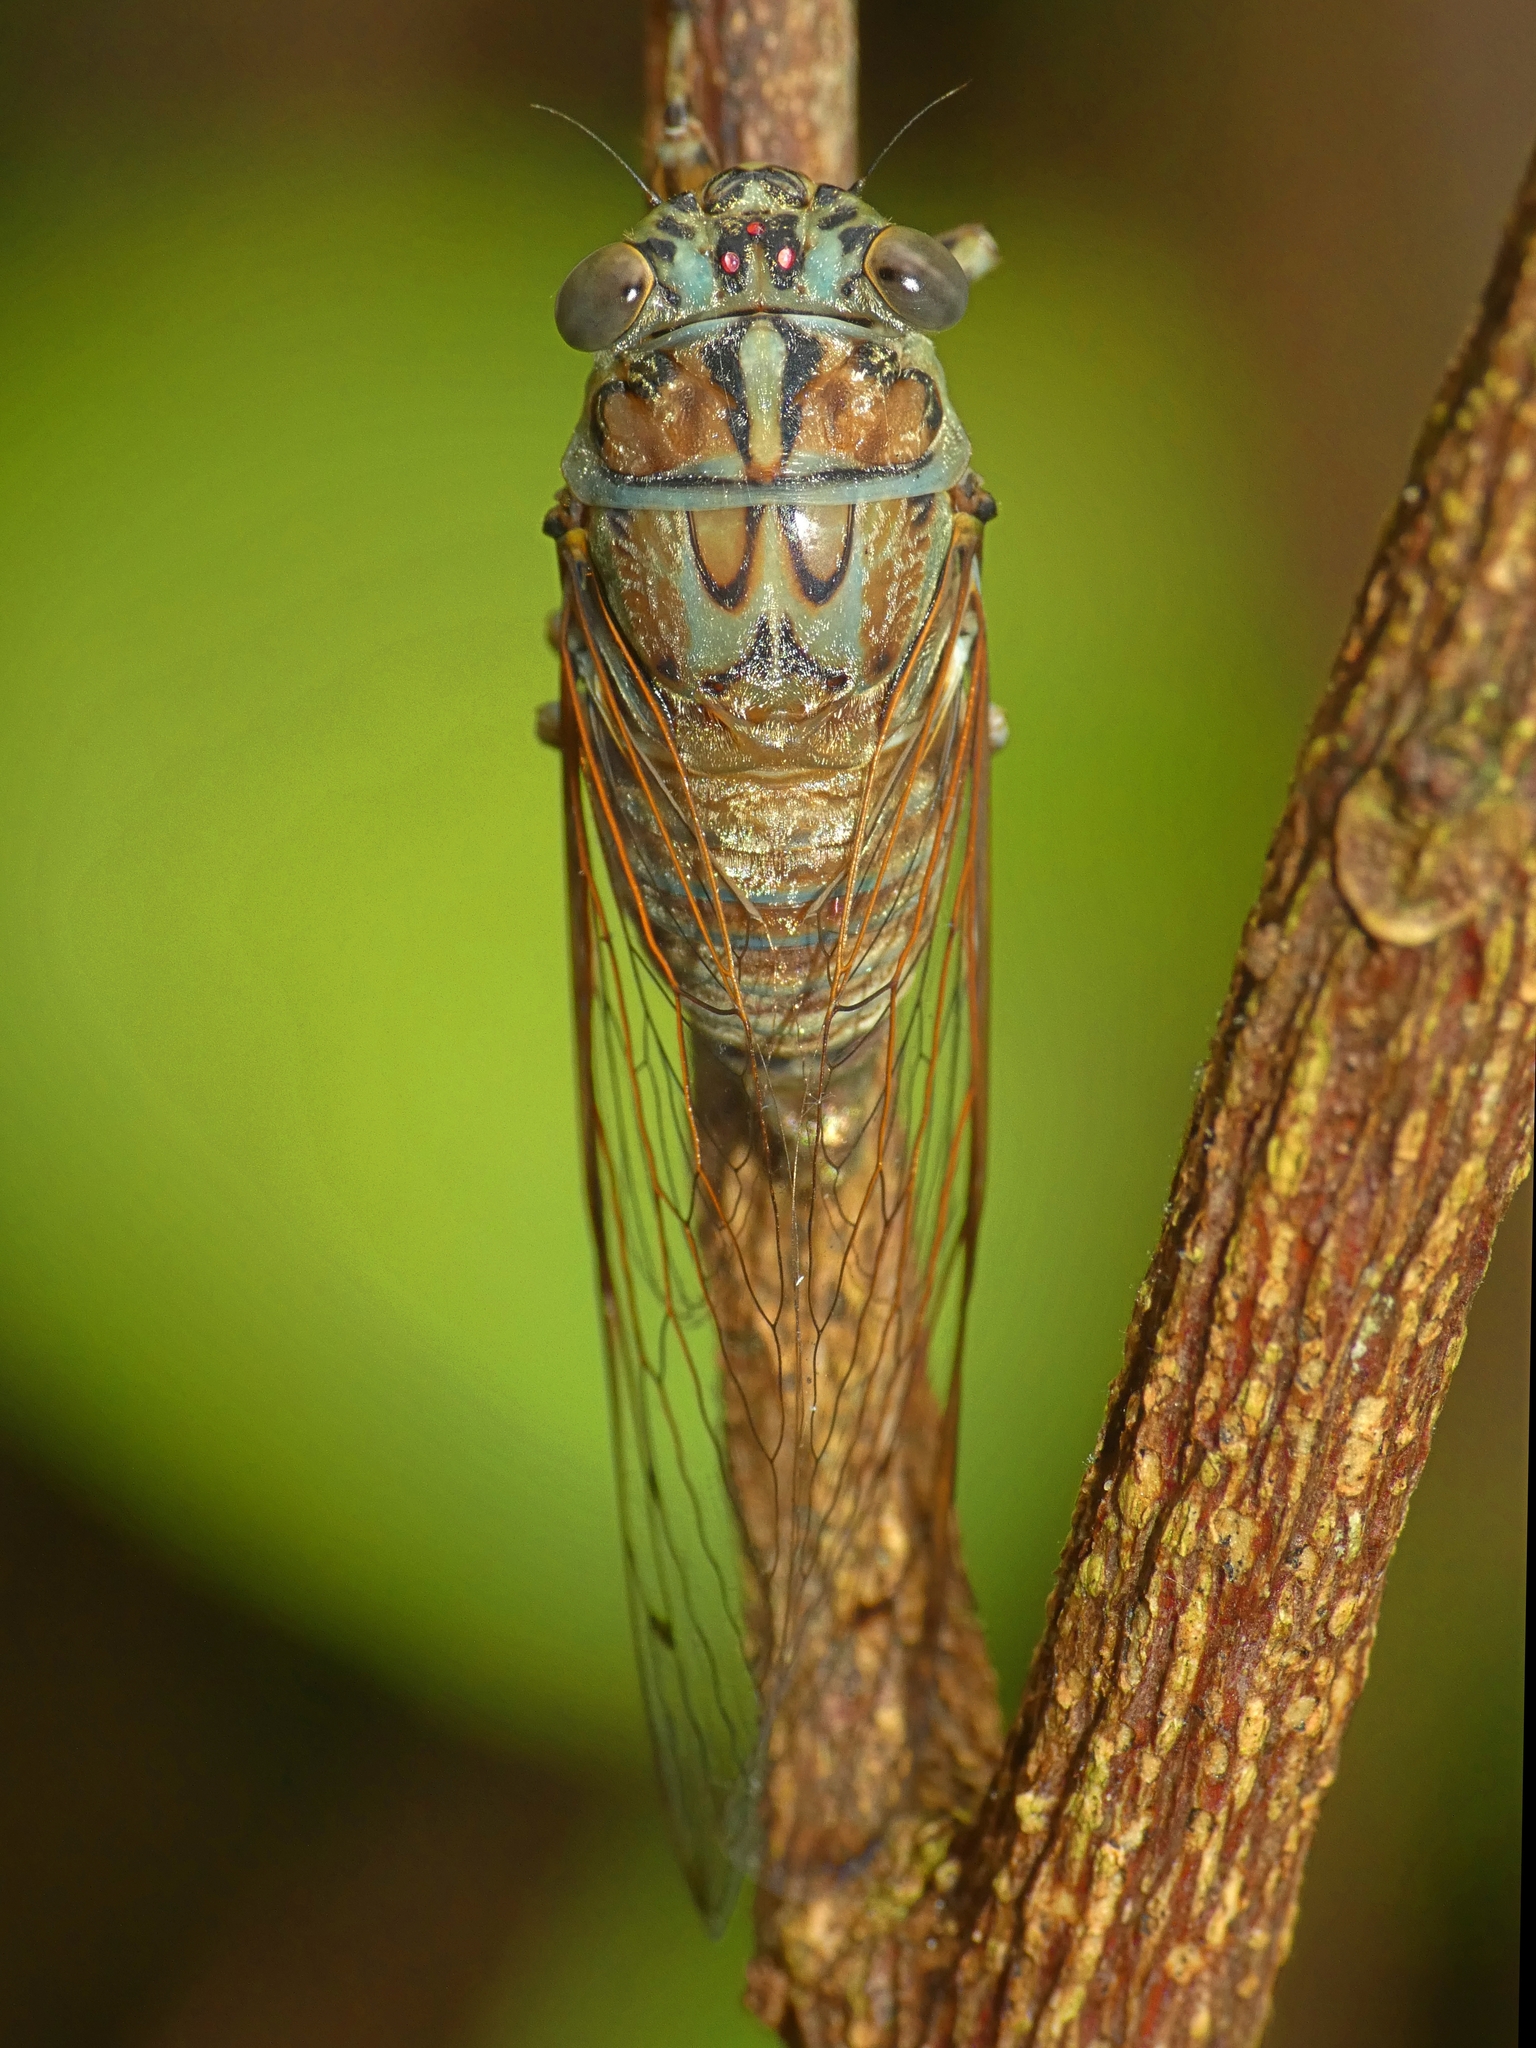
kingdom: Animalia
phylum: Arthropoda
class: Insecta
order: Hemiptera
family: Cicadidae
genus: Tamasa
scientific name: Tamasa tristigma
